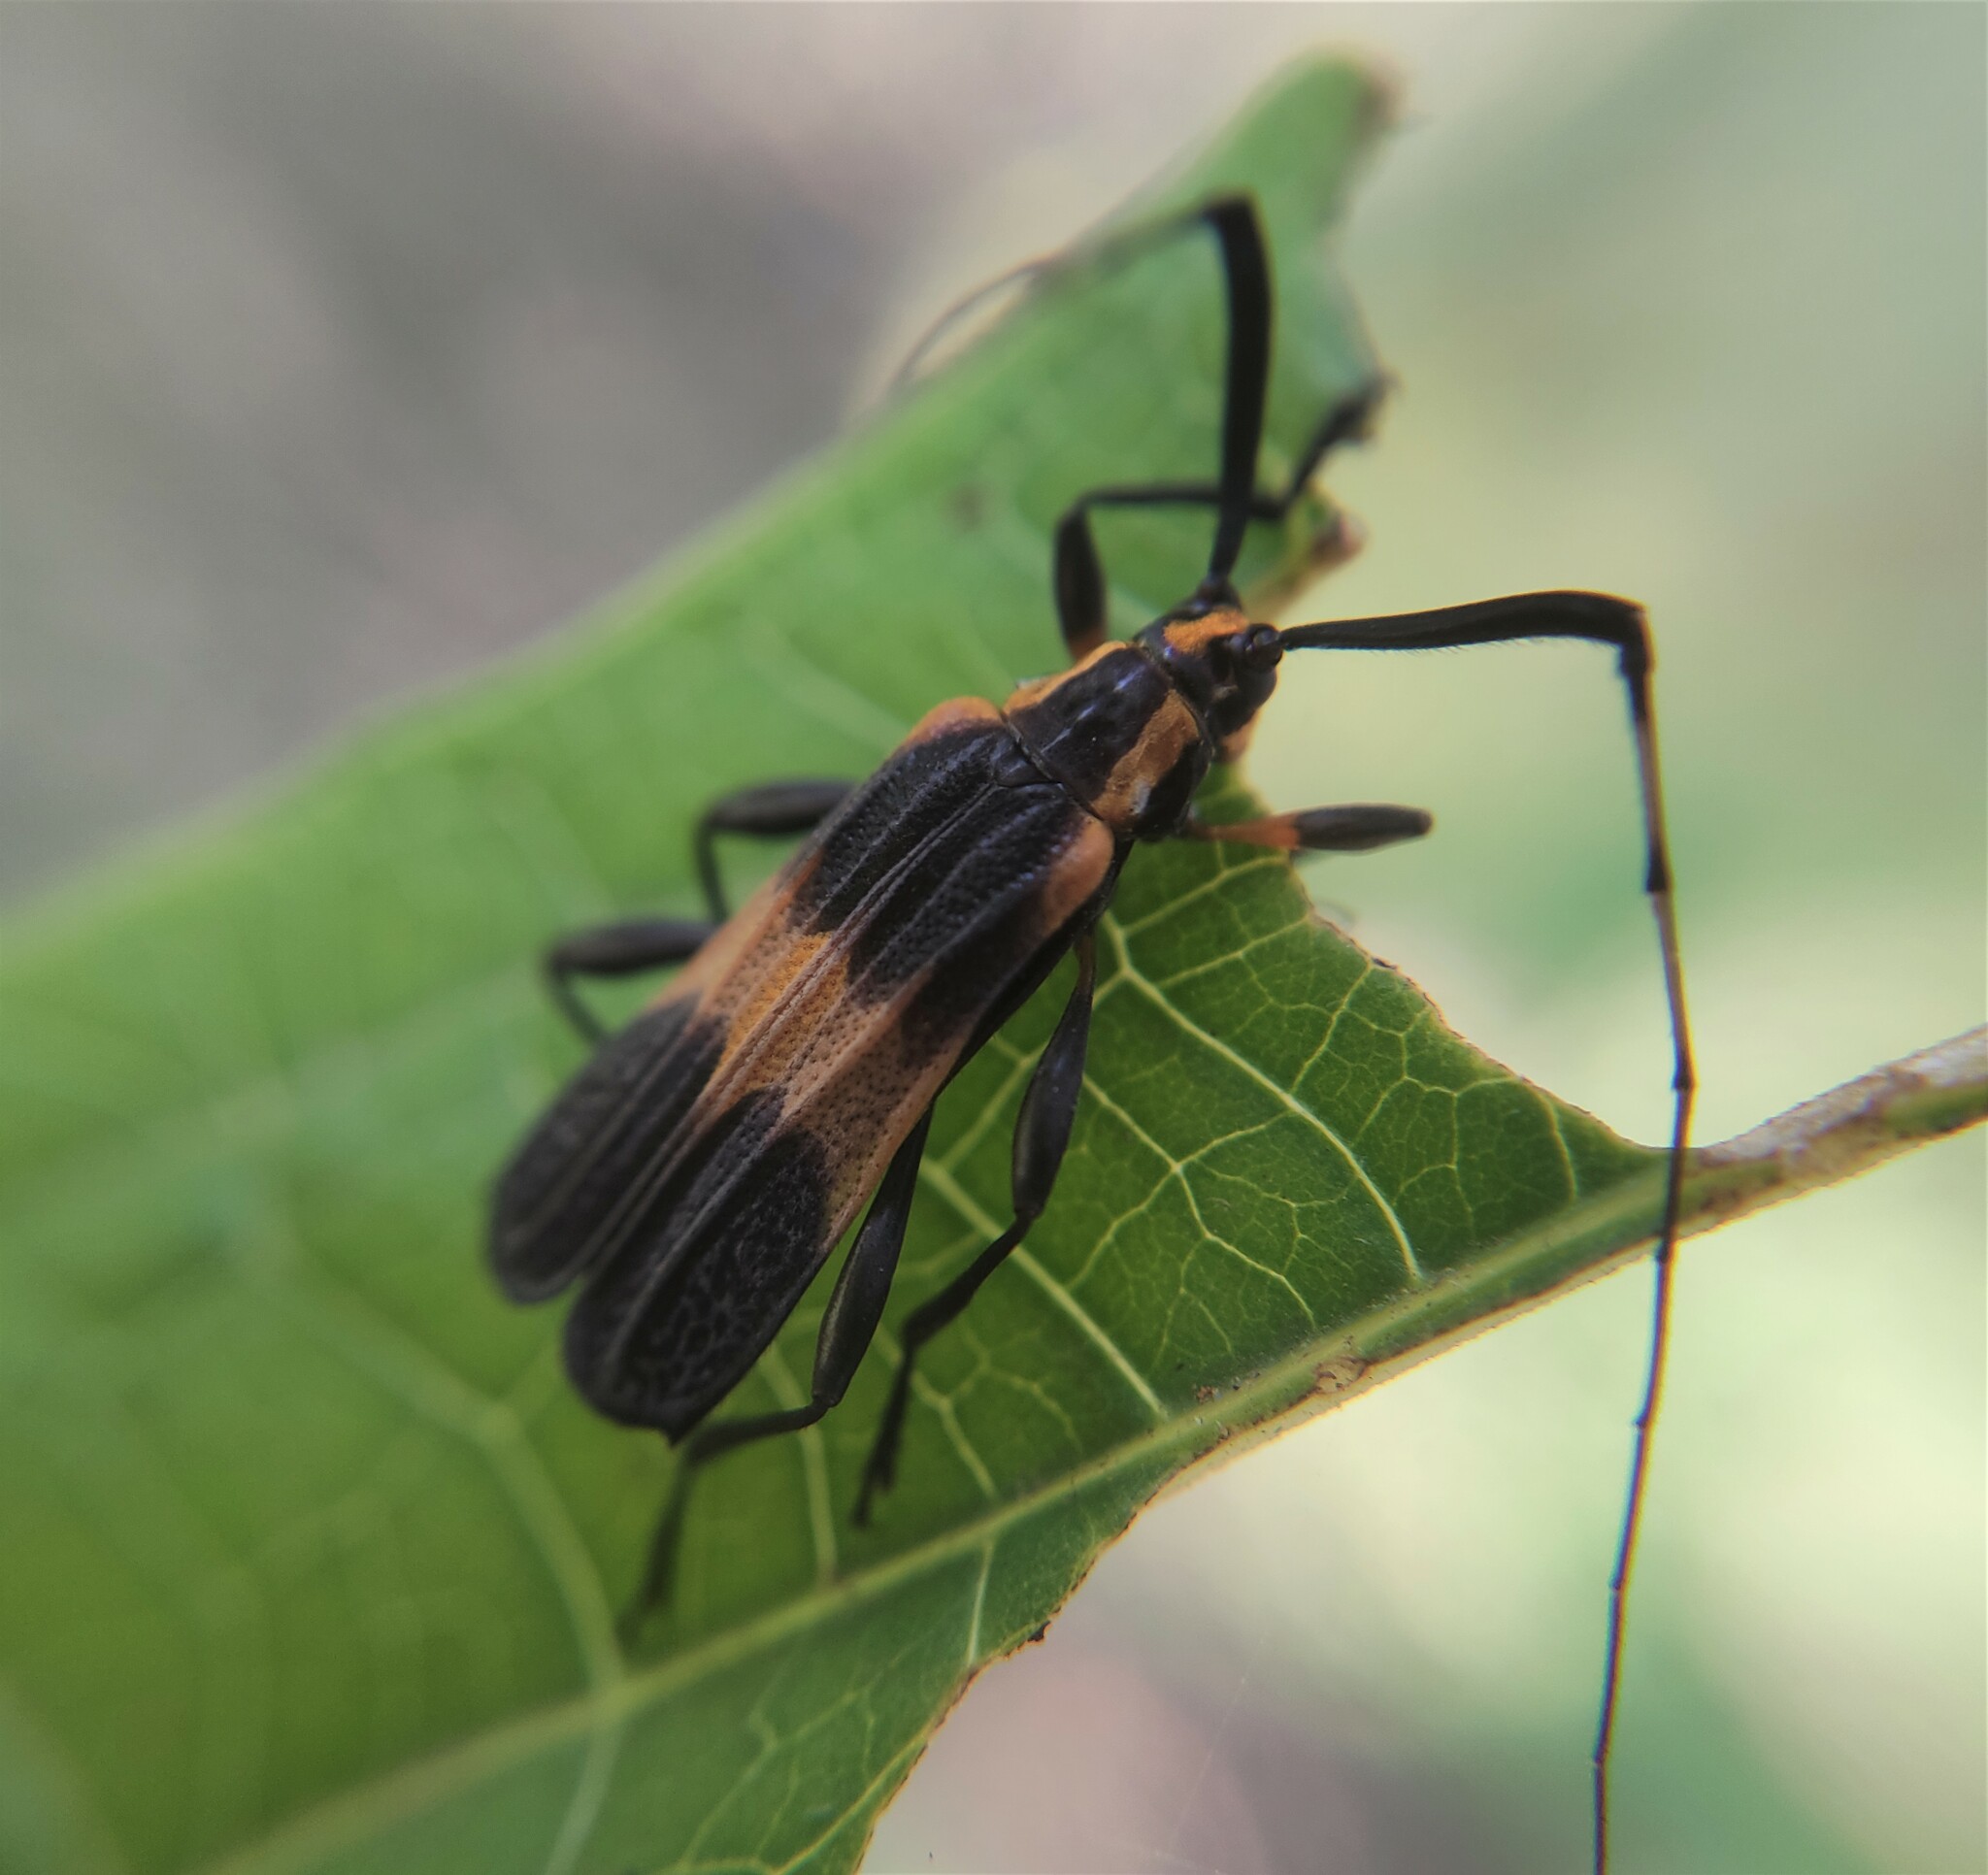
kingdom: Animalia
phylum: Arthropoda
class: Insecta
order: Coleoptera
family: Cerambycidae
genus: Batesparna
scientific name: Batesparna
